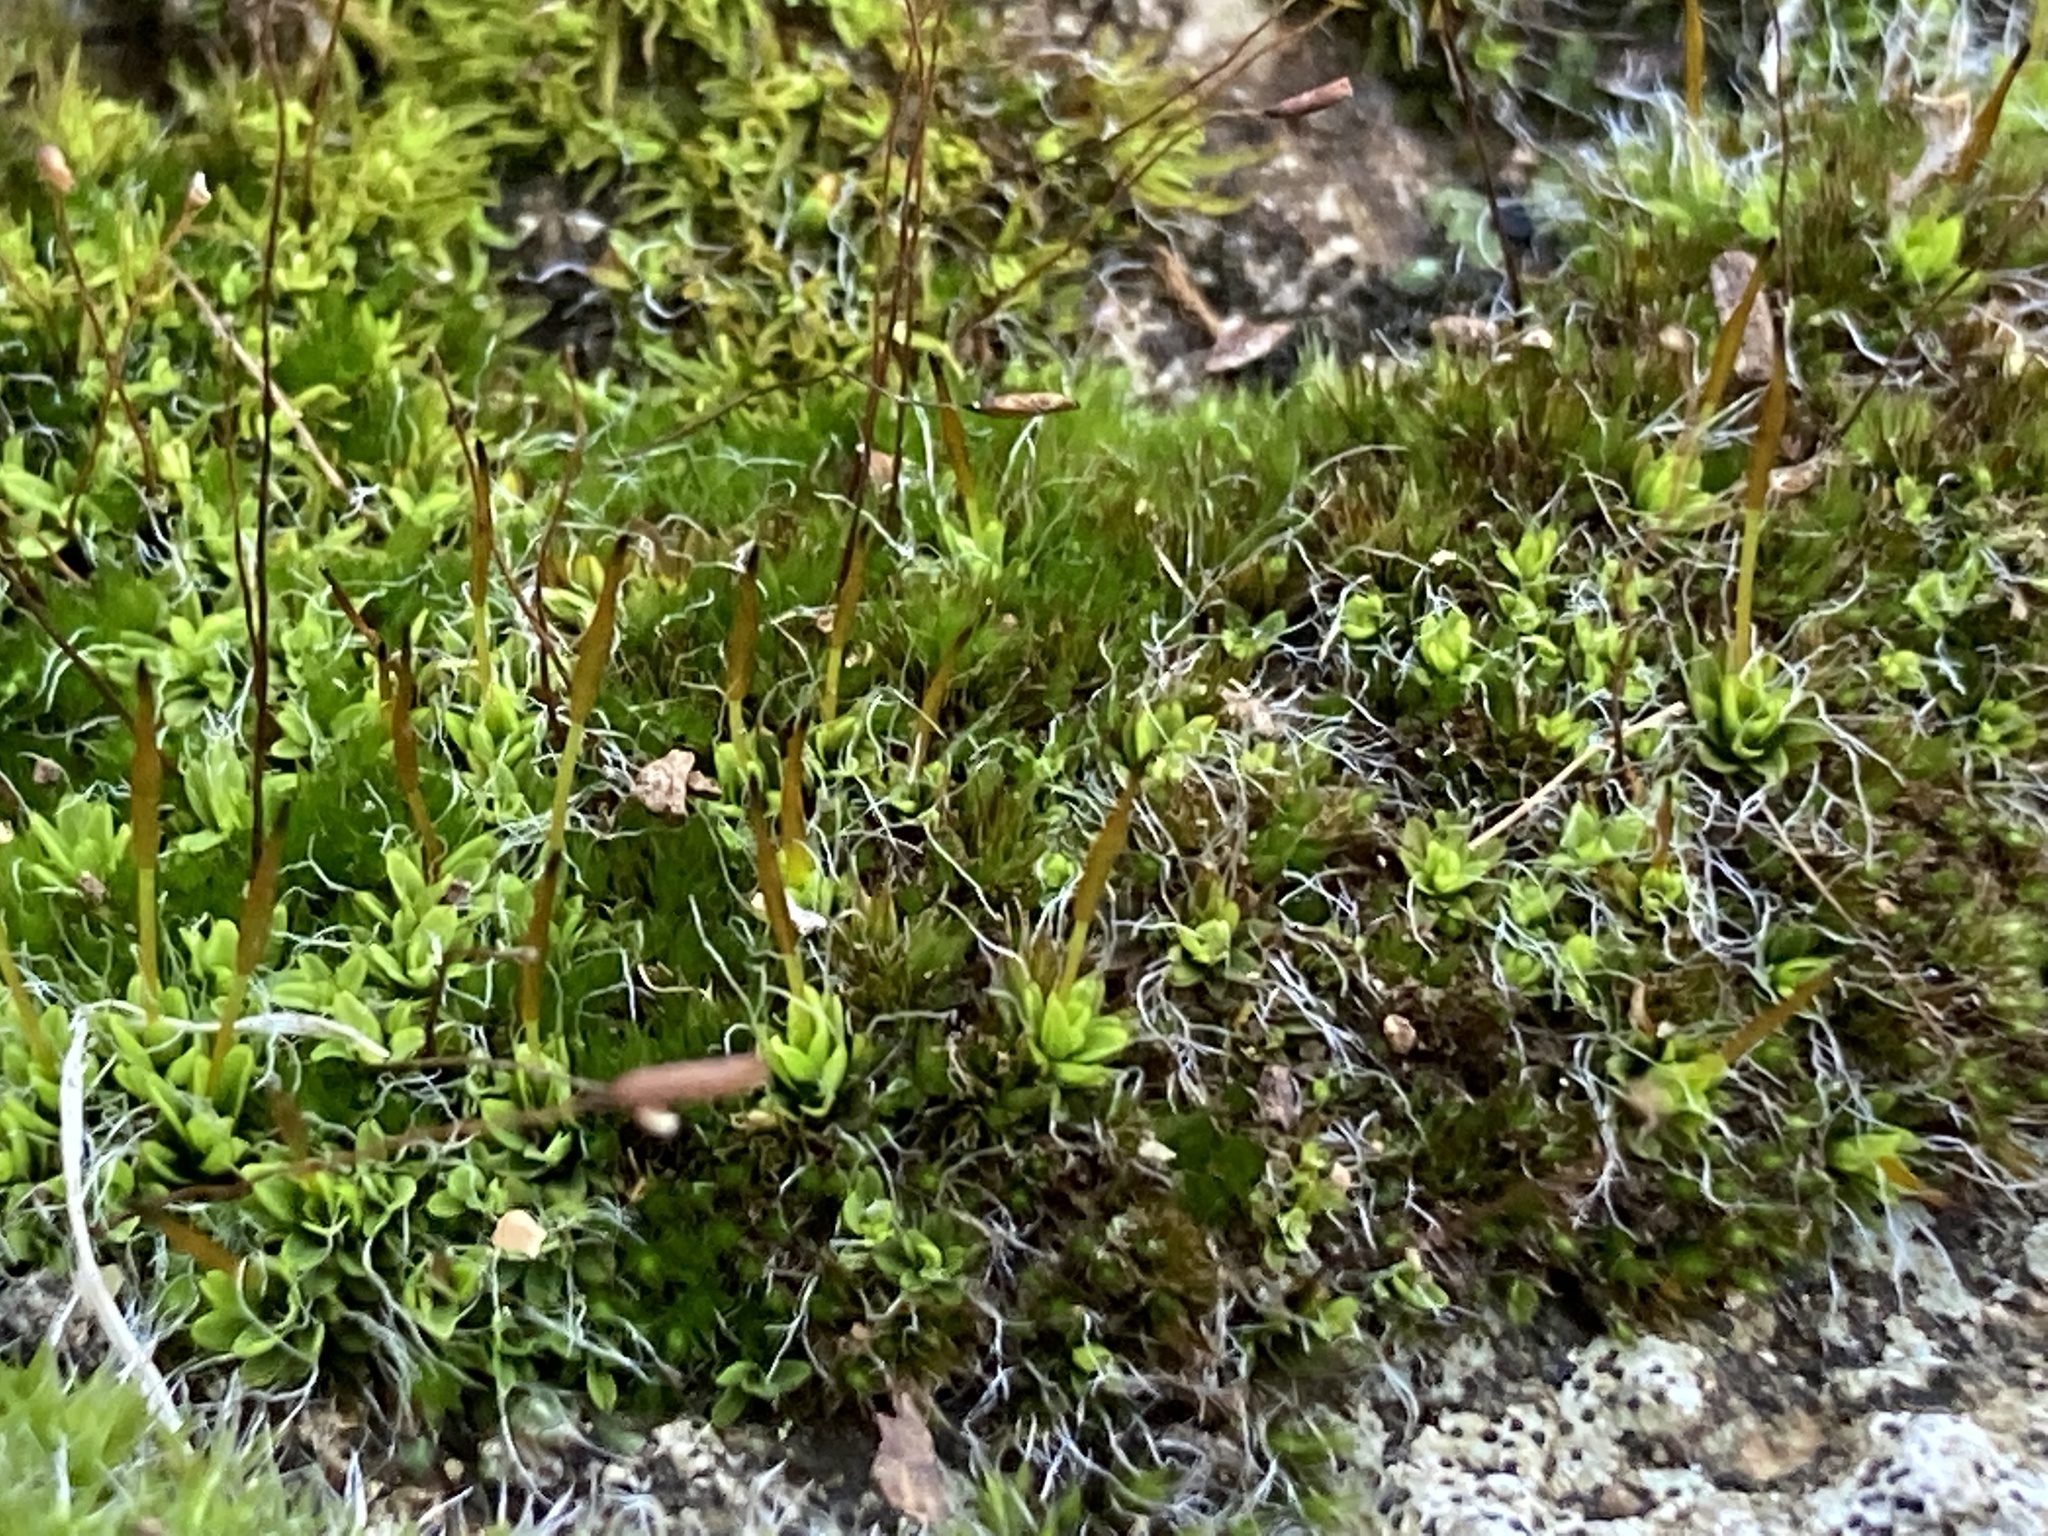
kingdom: Plantae
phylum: Bryophyta
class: Bryopsida
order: Pottiales
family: Pottiaceae
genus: Tortula
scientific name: Tortula muralis
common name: Wall screw-moss
